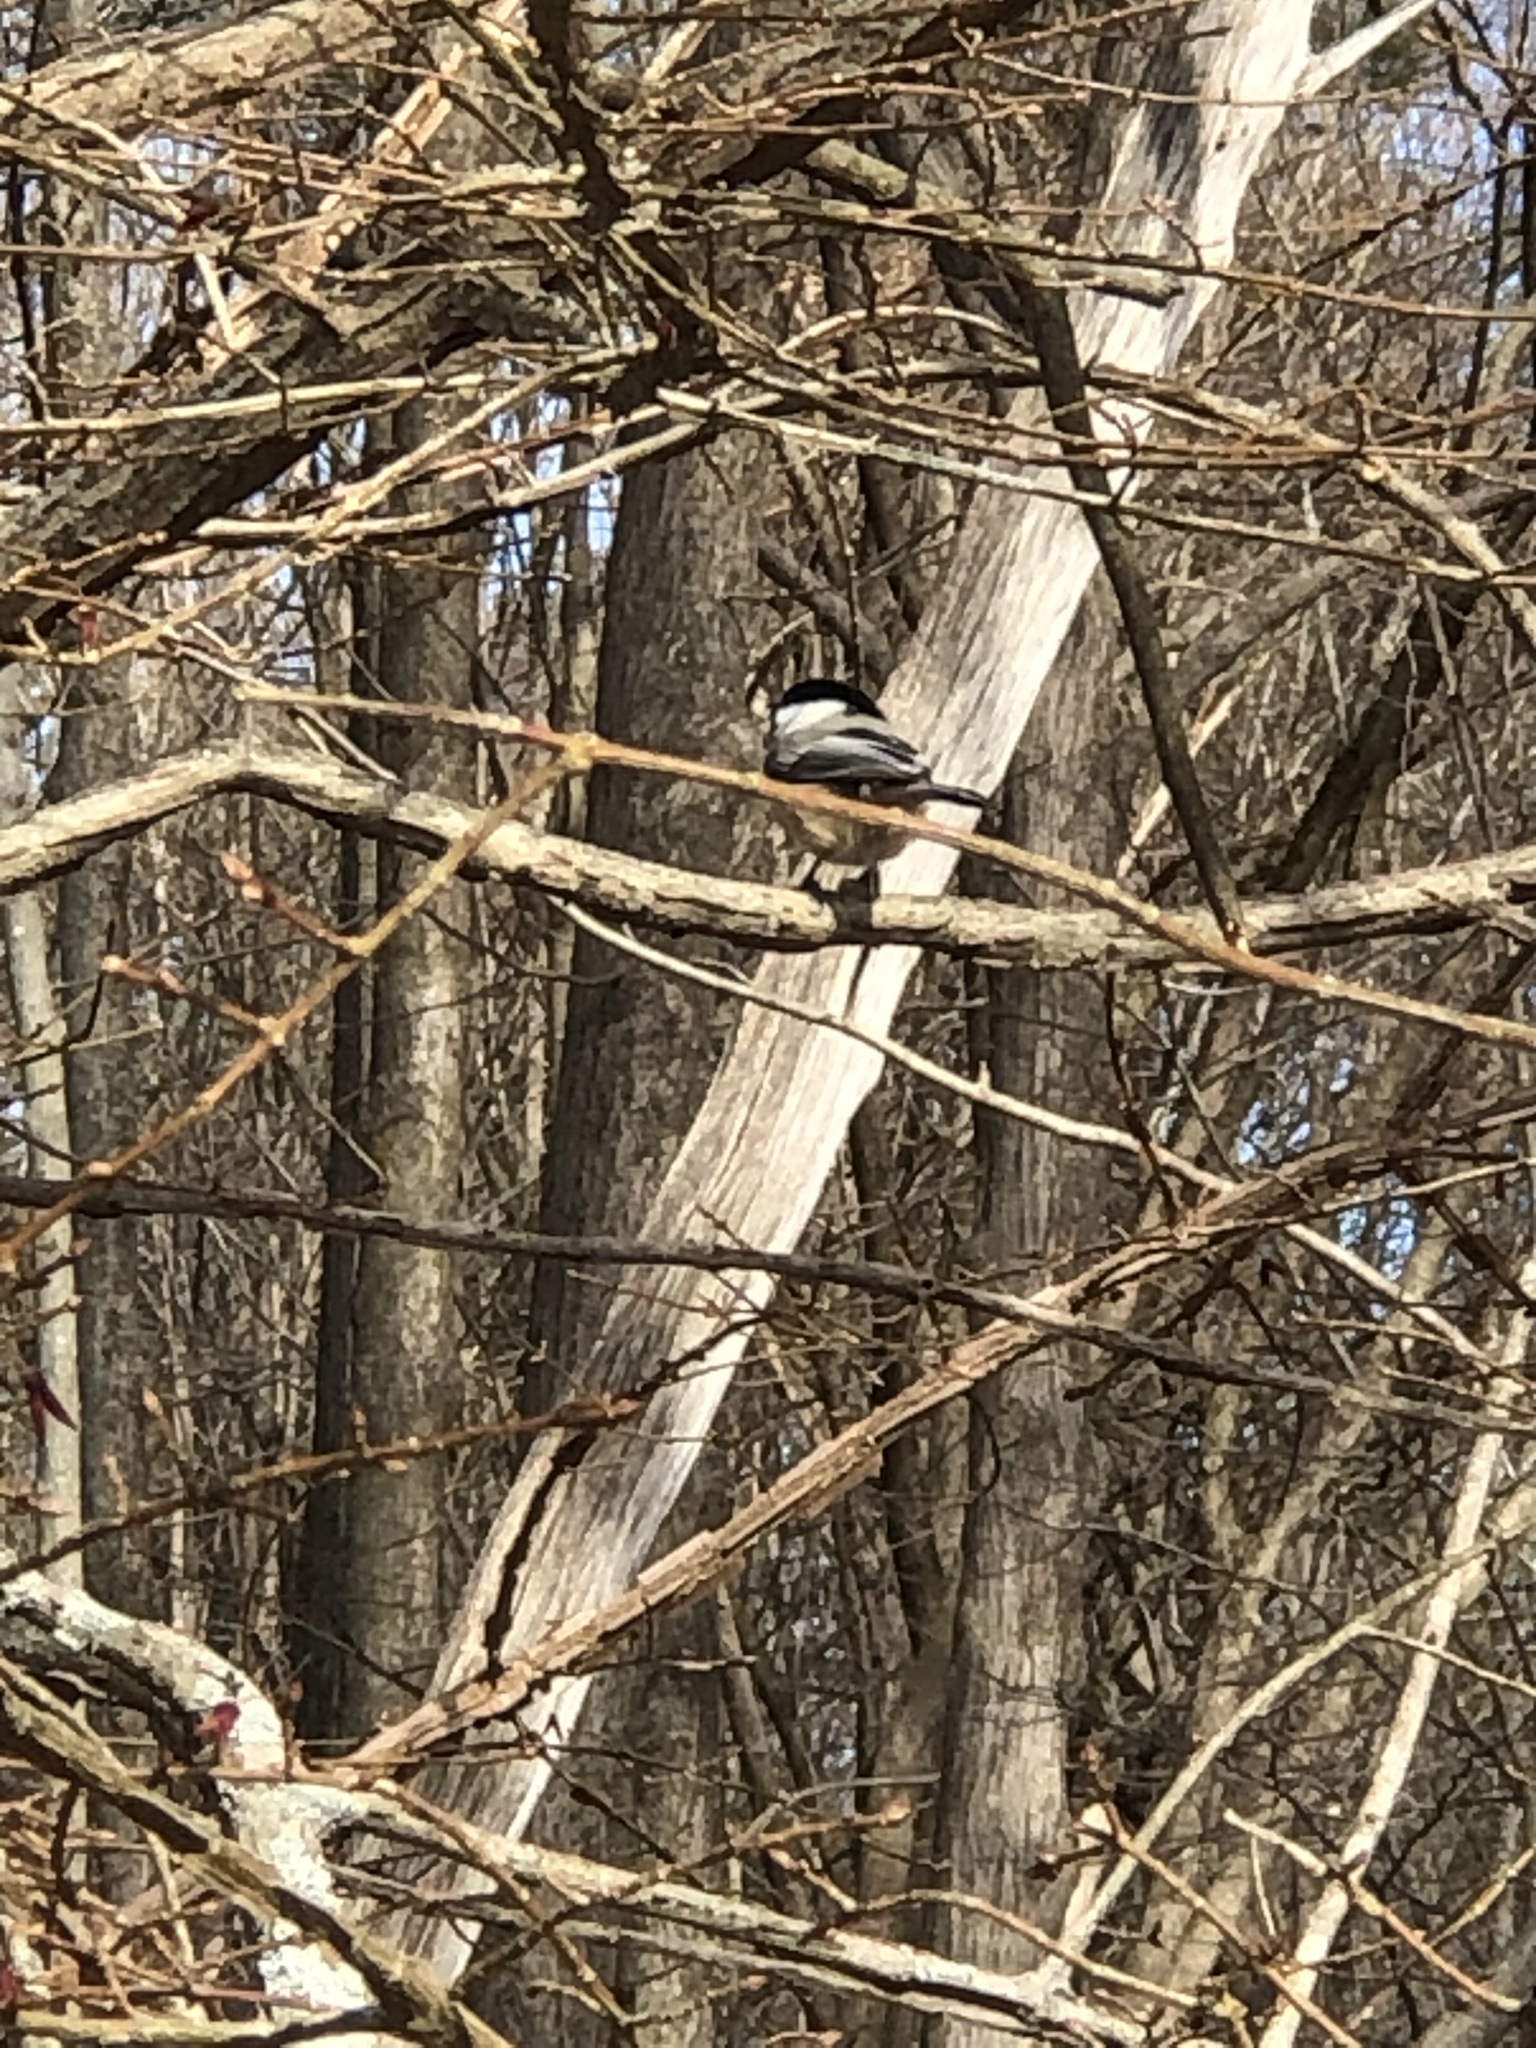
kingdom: Animalia
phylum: Chordata
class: Aves
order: Passeriformes
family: Paridae
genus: Poecile
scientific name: Poecile atricapillus
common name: Black-capped chickadee
